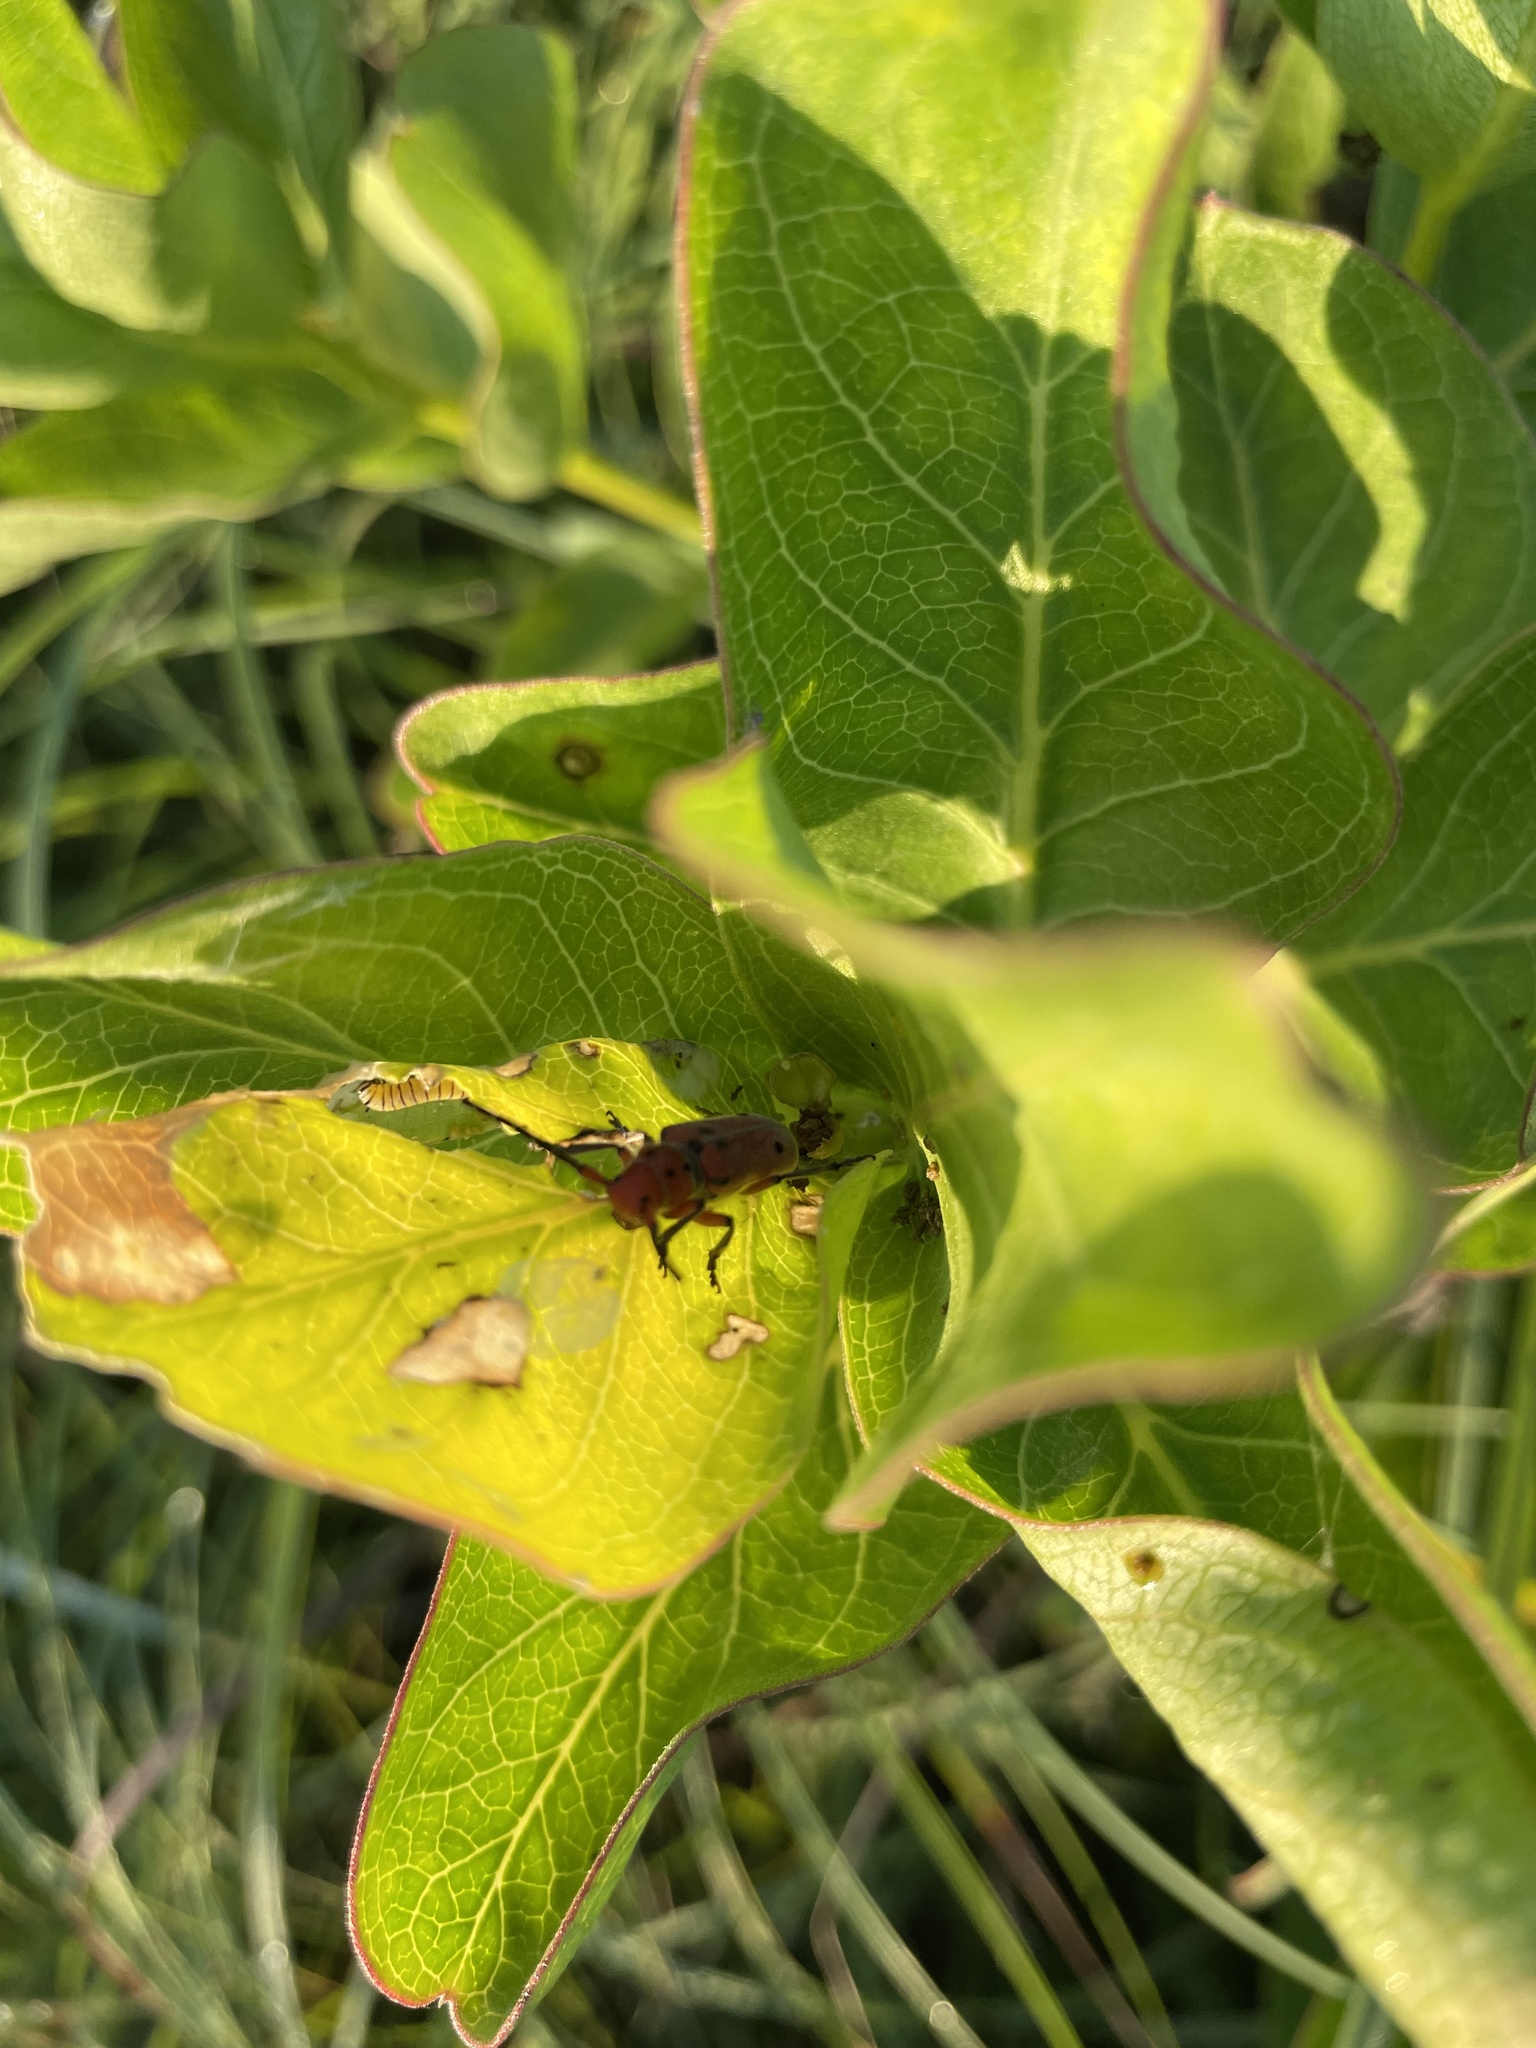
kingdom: Animalia
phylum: Arthropoda
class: Insecta
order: Coleoptera
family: Cerambycidae
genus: Tetraopes
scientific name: Tetraopes femoratus
